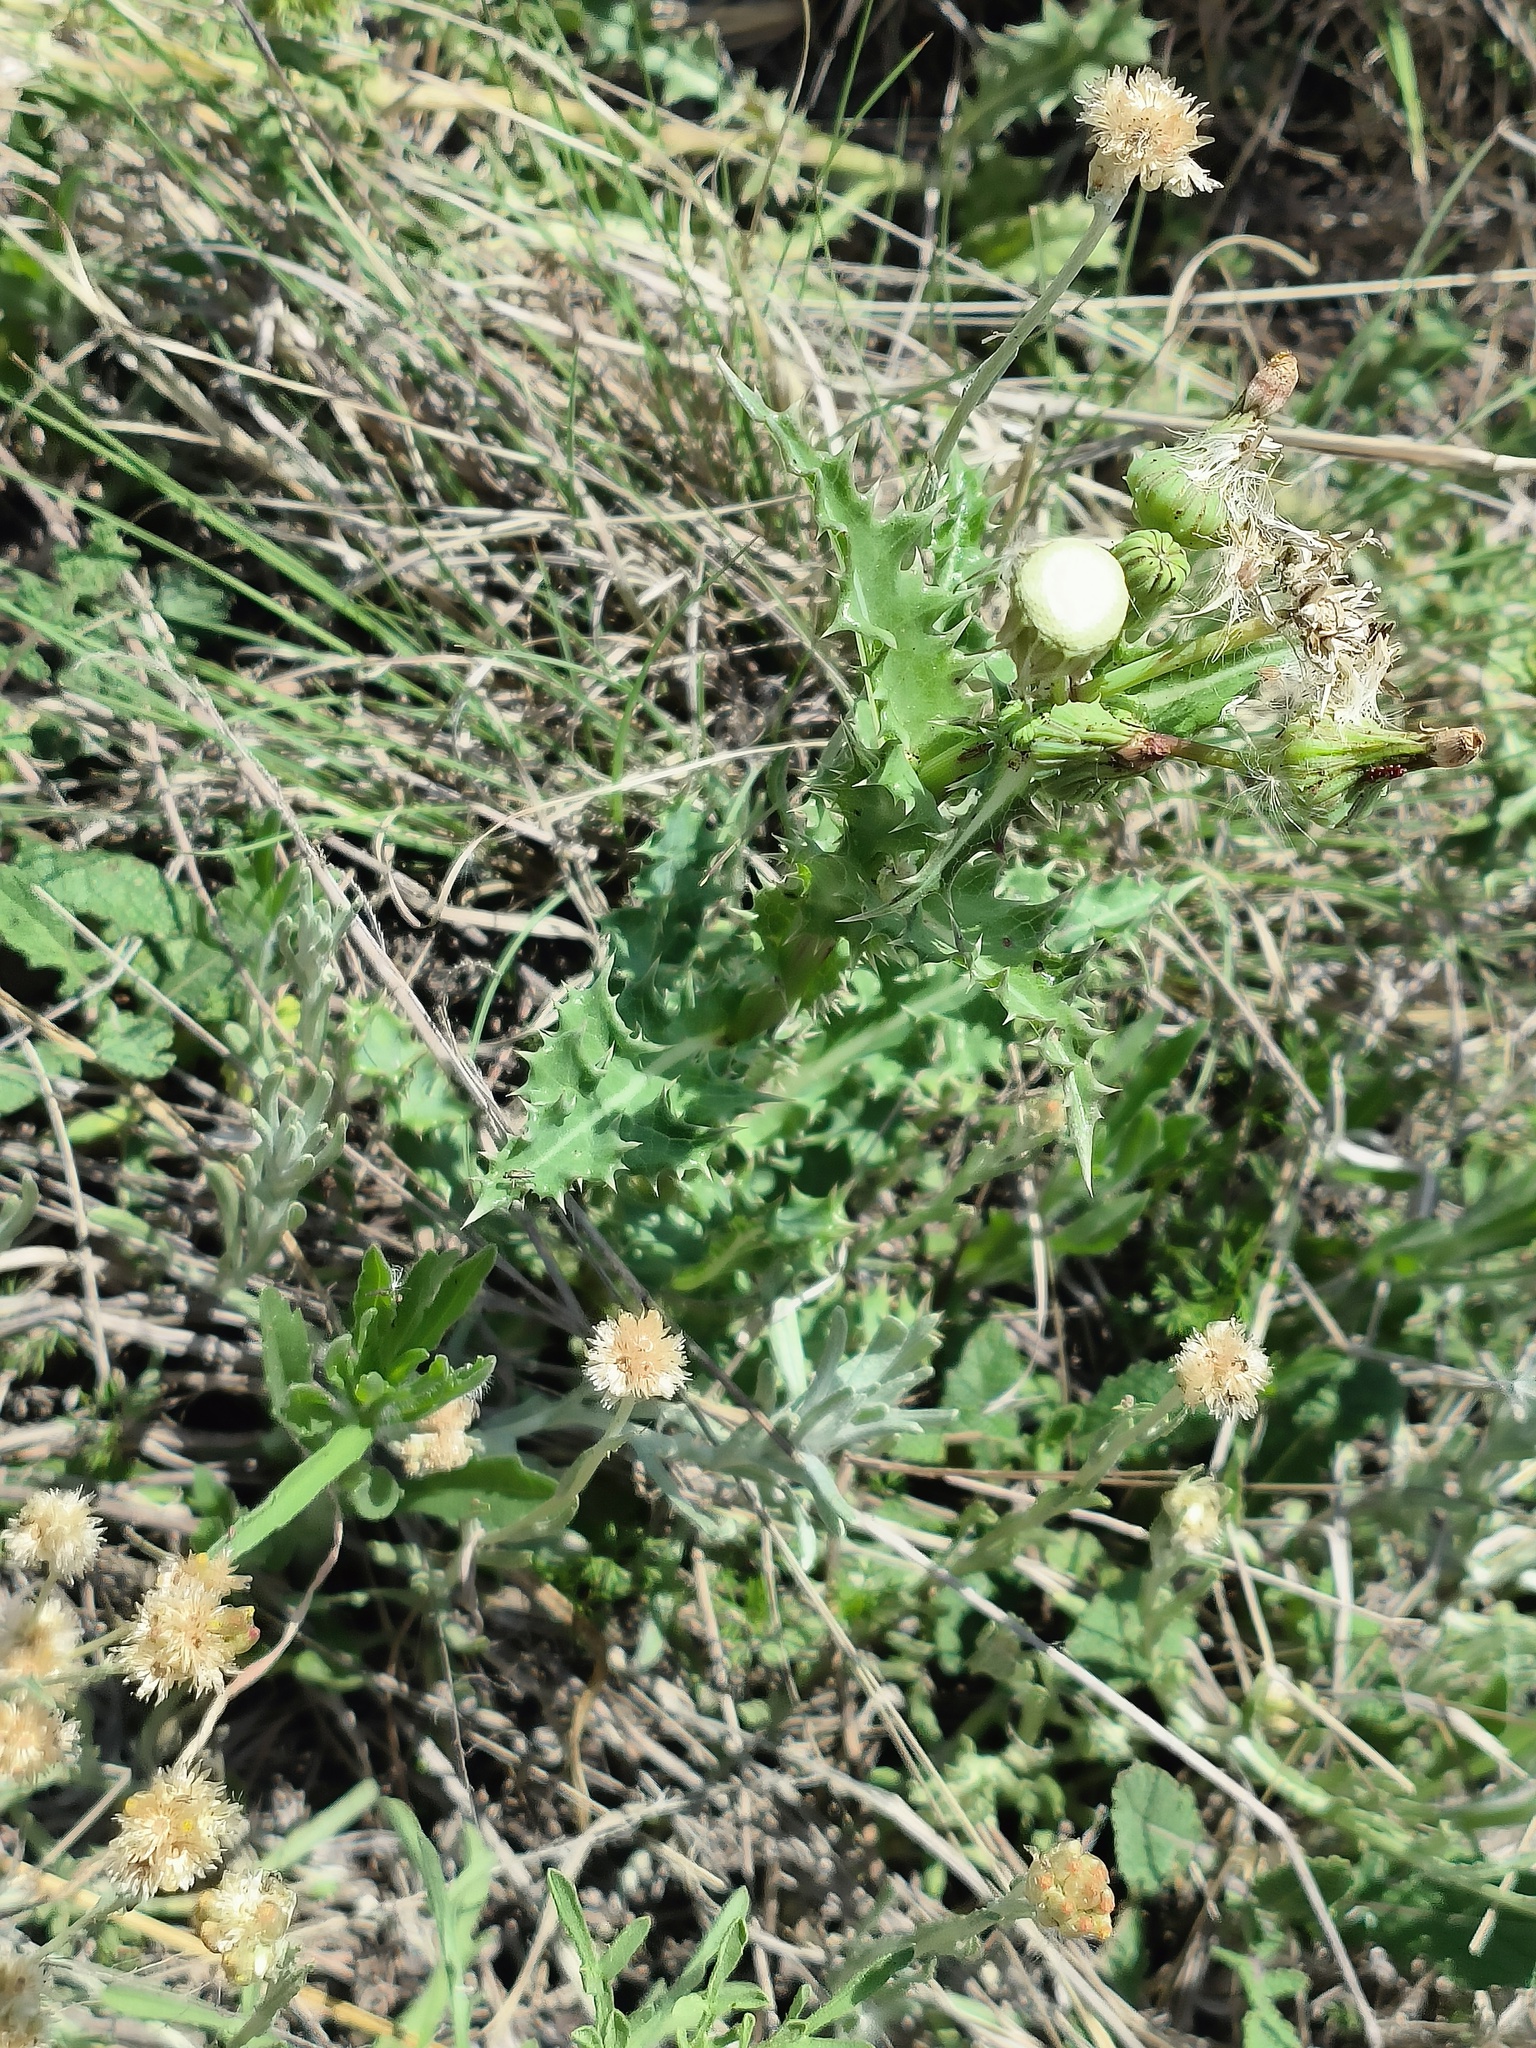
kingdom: Plantae
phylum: Tracheophyta
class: Magnoliopsida
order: Asterales
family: Asteraceae
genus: Sonchus
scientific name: Sonchus asper
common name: Prickly sow-thistle
